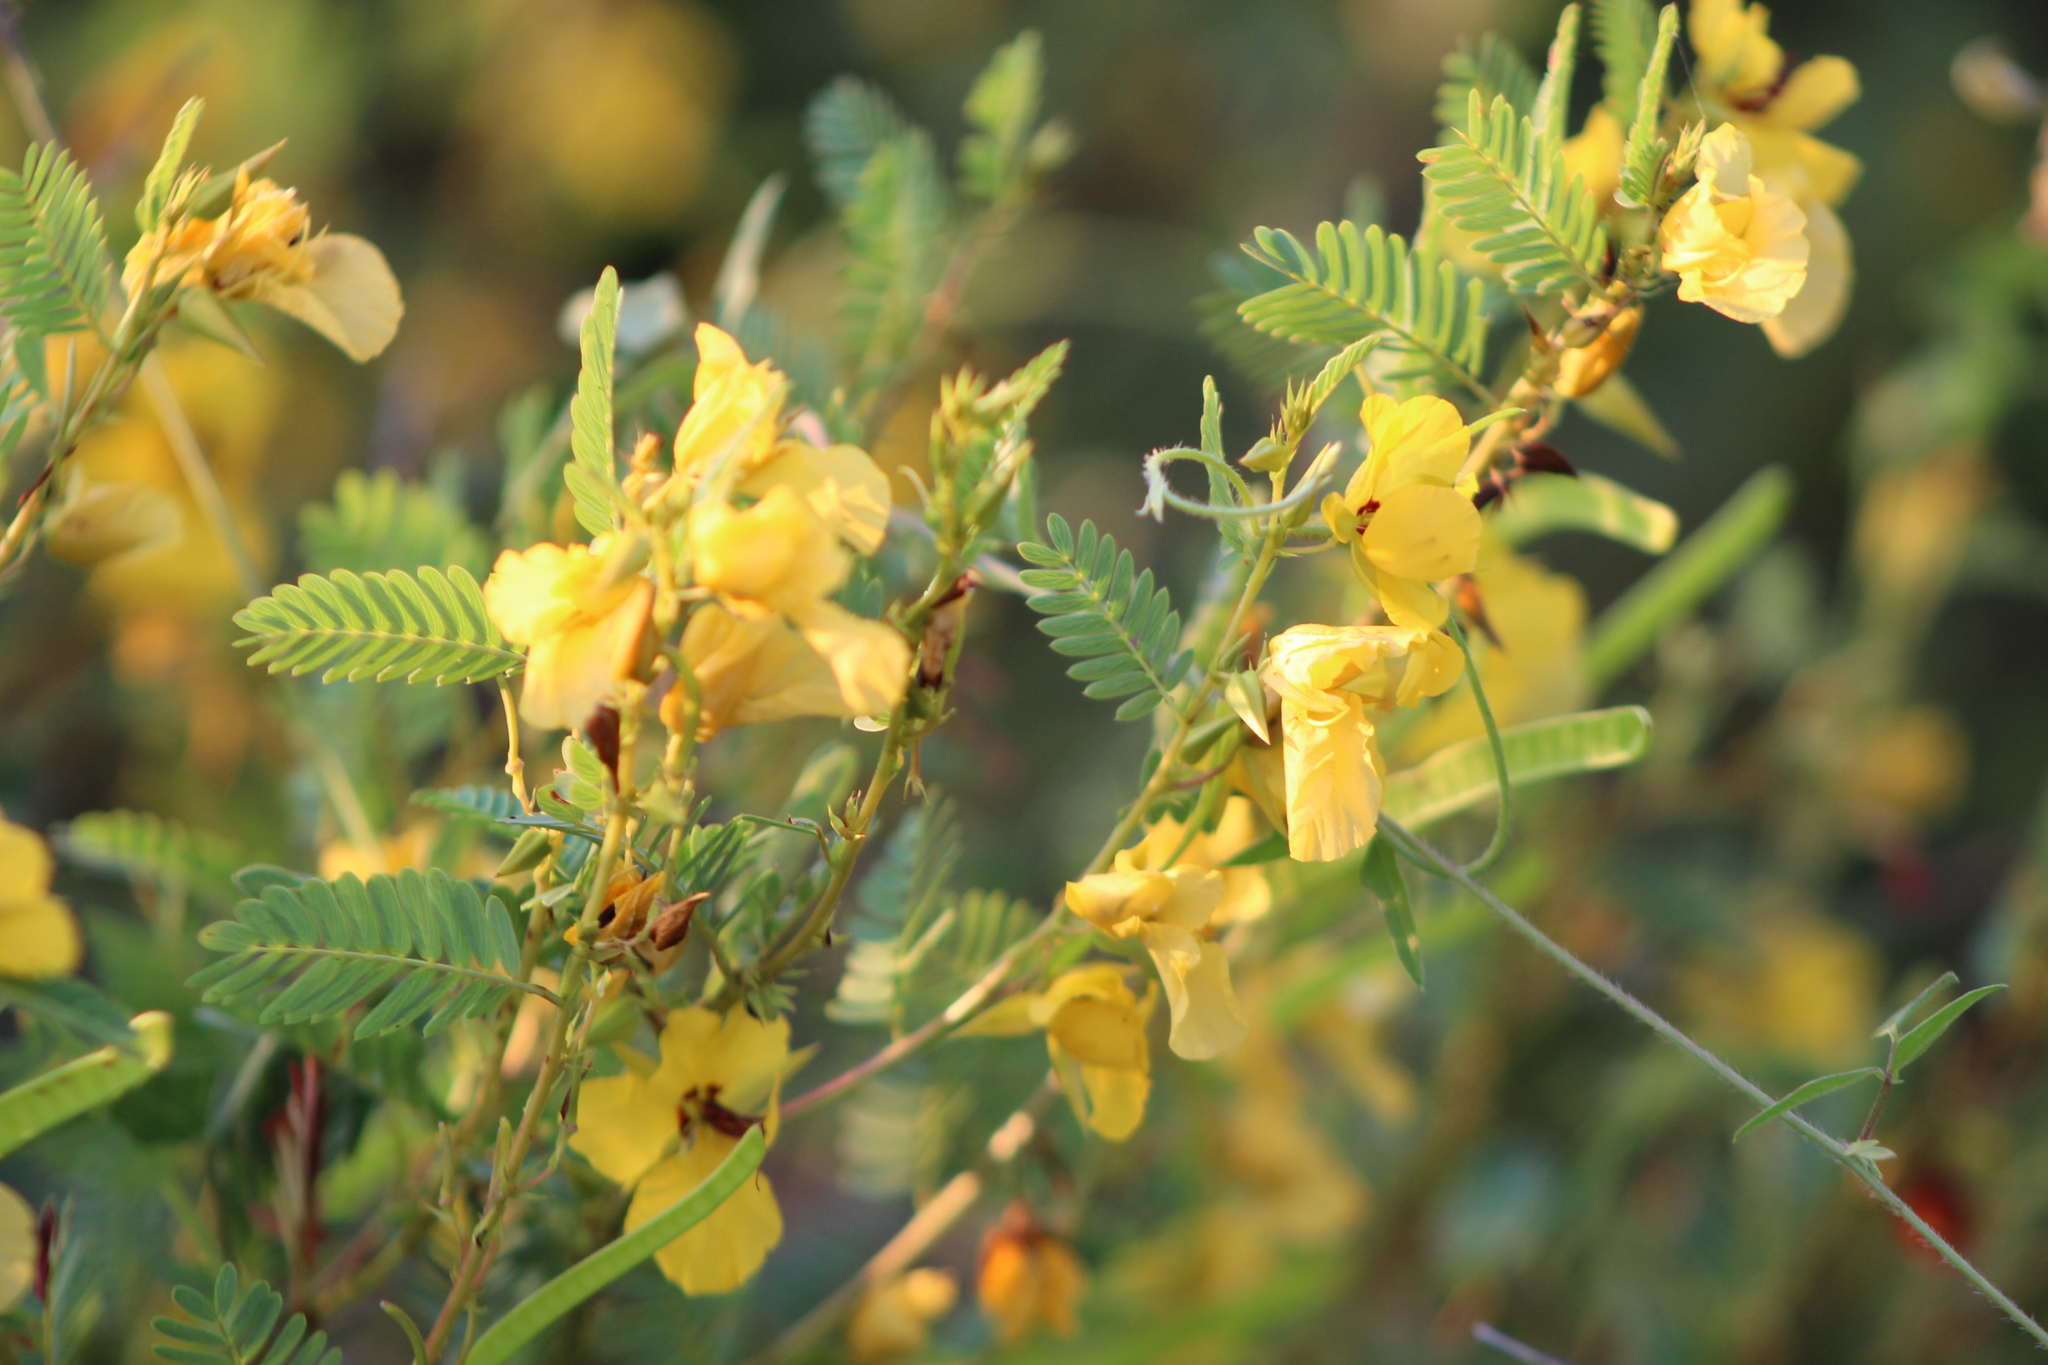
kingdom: Plantae
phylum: Tracheophyta
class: Magnoliopsida
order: Fabales
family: Fabaceae
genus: Chamaecrista
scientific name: Chamaecrista fasciculata
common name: Golden cassia
